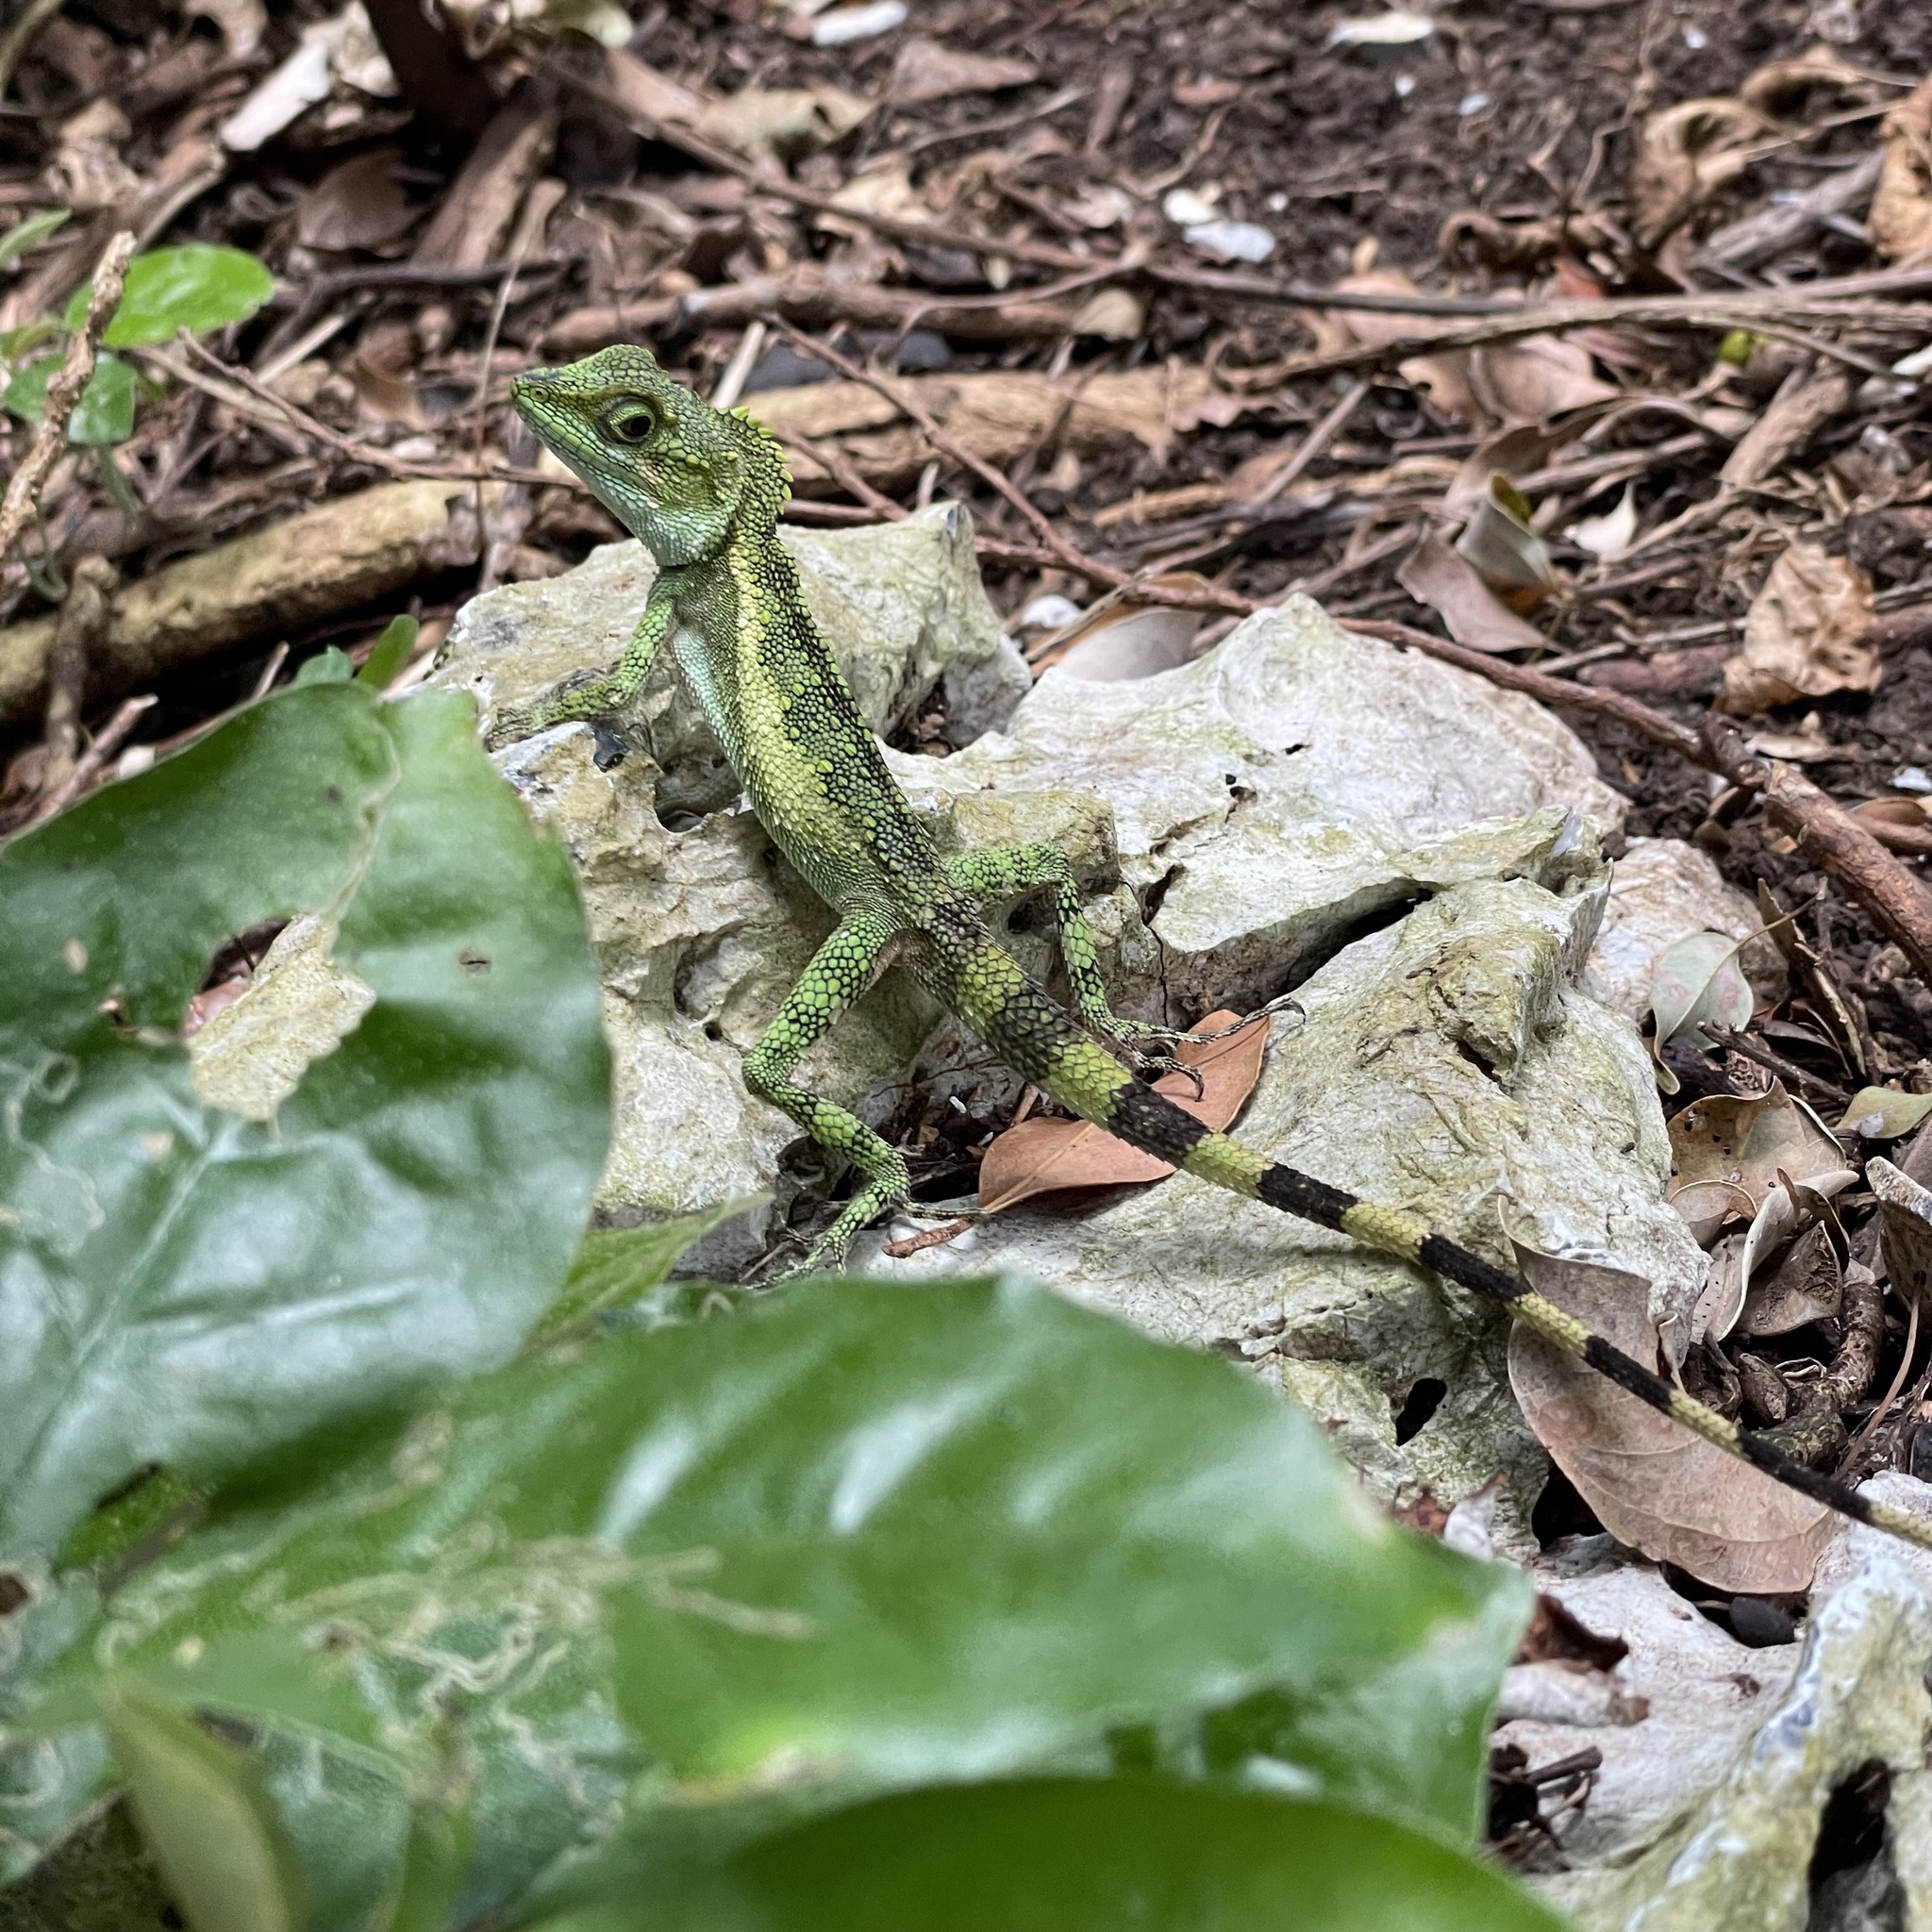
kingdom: Fungi
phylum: Basidiomycota
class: Agaricomycetes
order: Boletales
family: Diplocystidiaceae
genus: Diploderma
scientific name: Diploderma polygonatum
